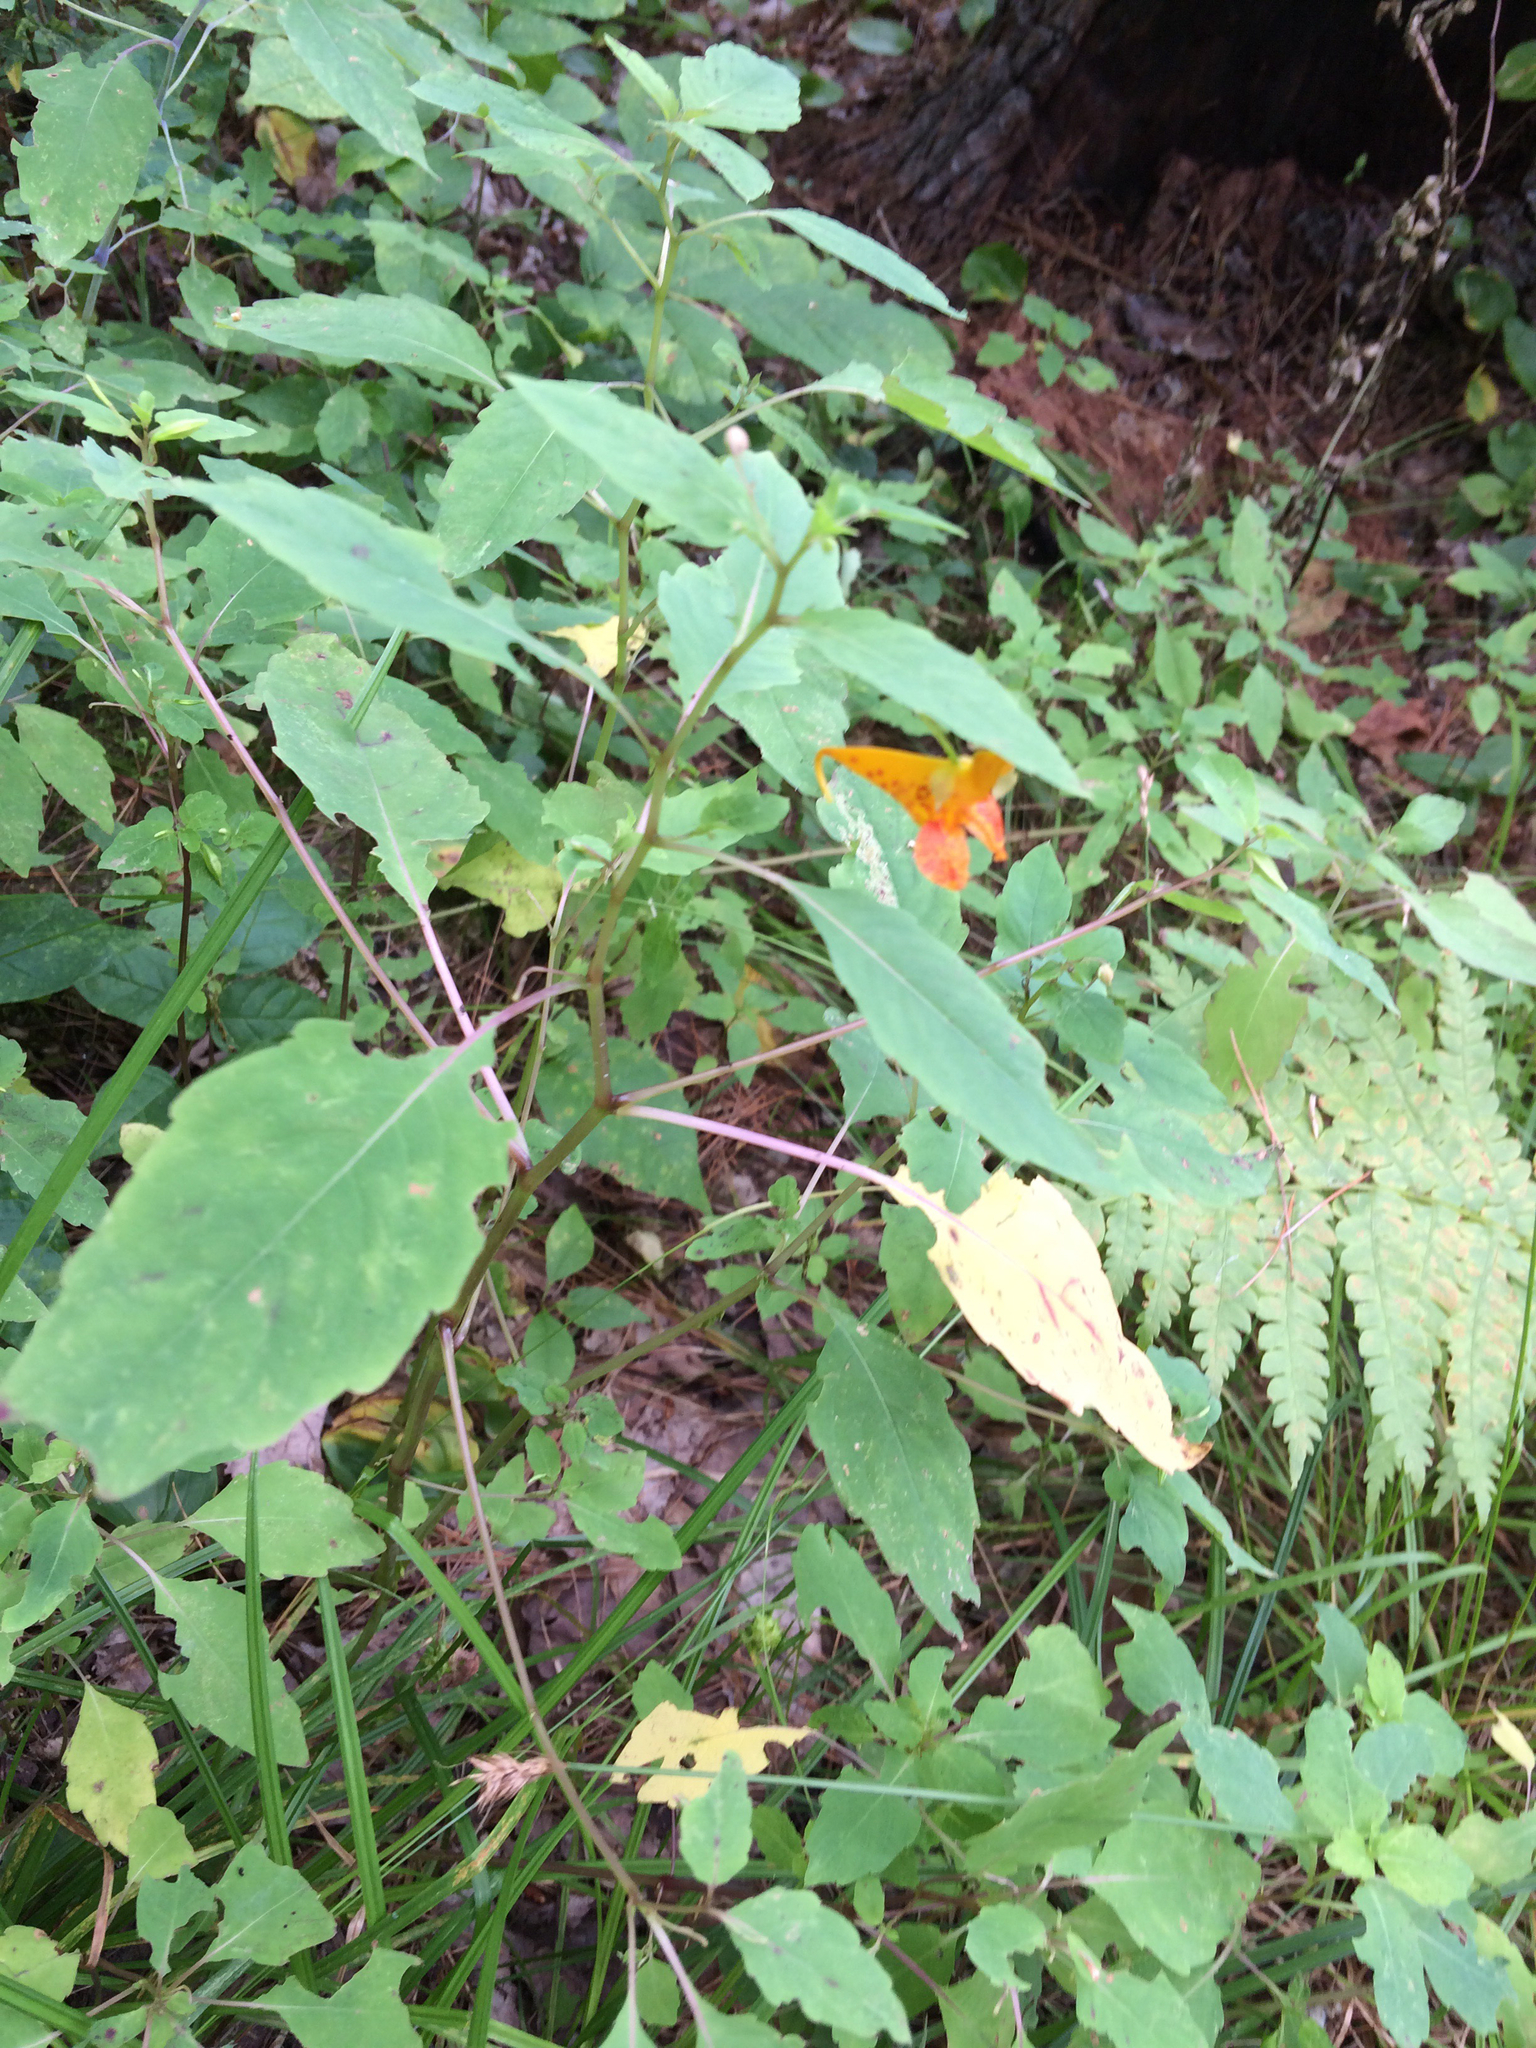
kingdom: Plantae
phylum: Tracheophyta
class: Magnoliopsida
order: Ericales
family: Balsaminaceae
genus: Impatiens
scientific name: Impatiens capensis
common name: Orange balsam
